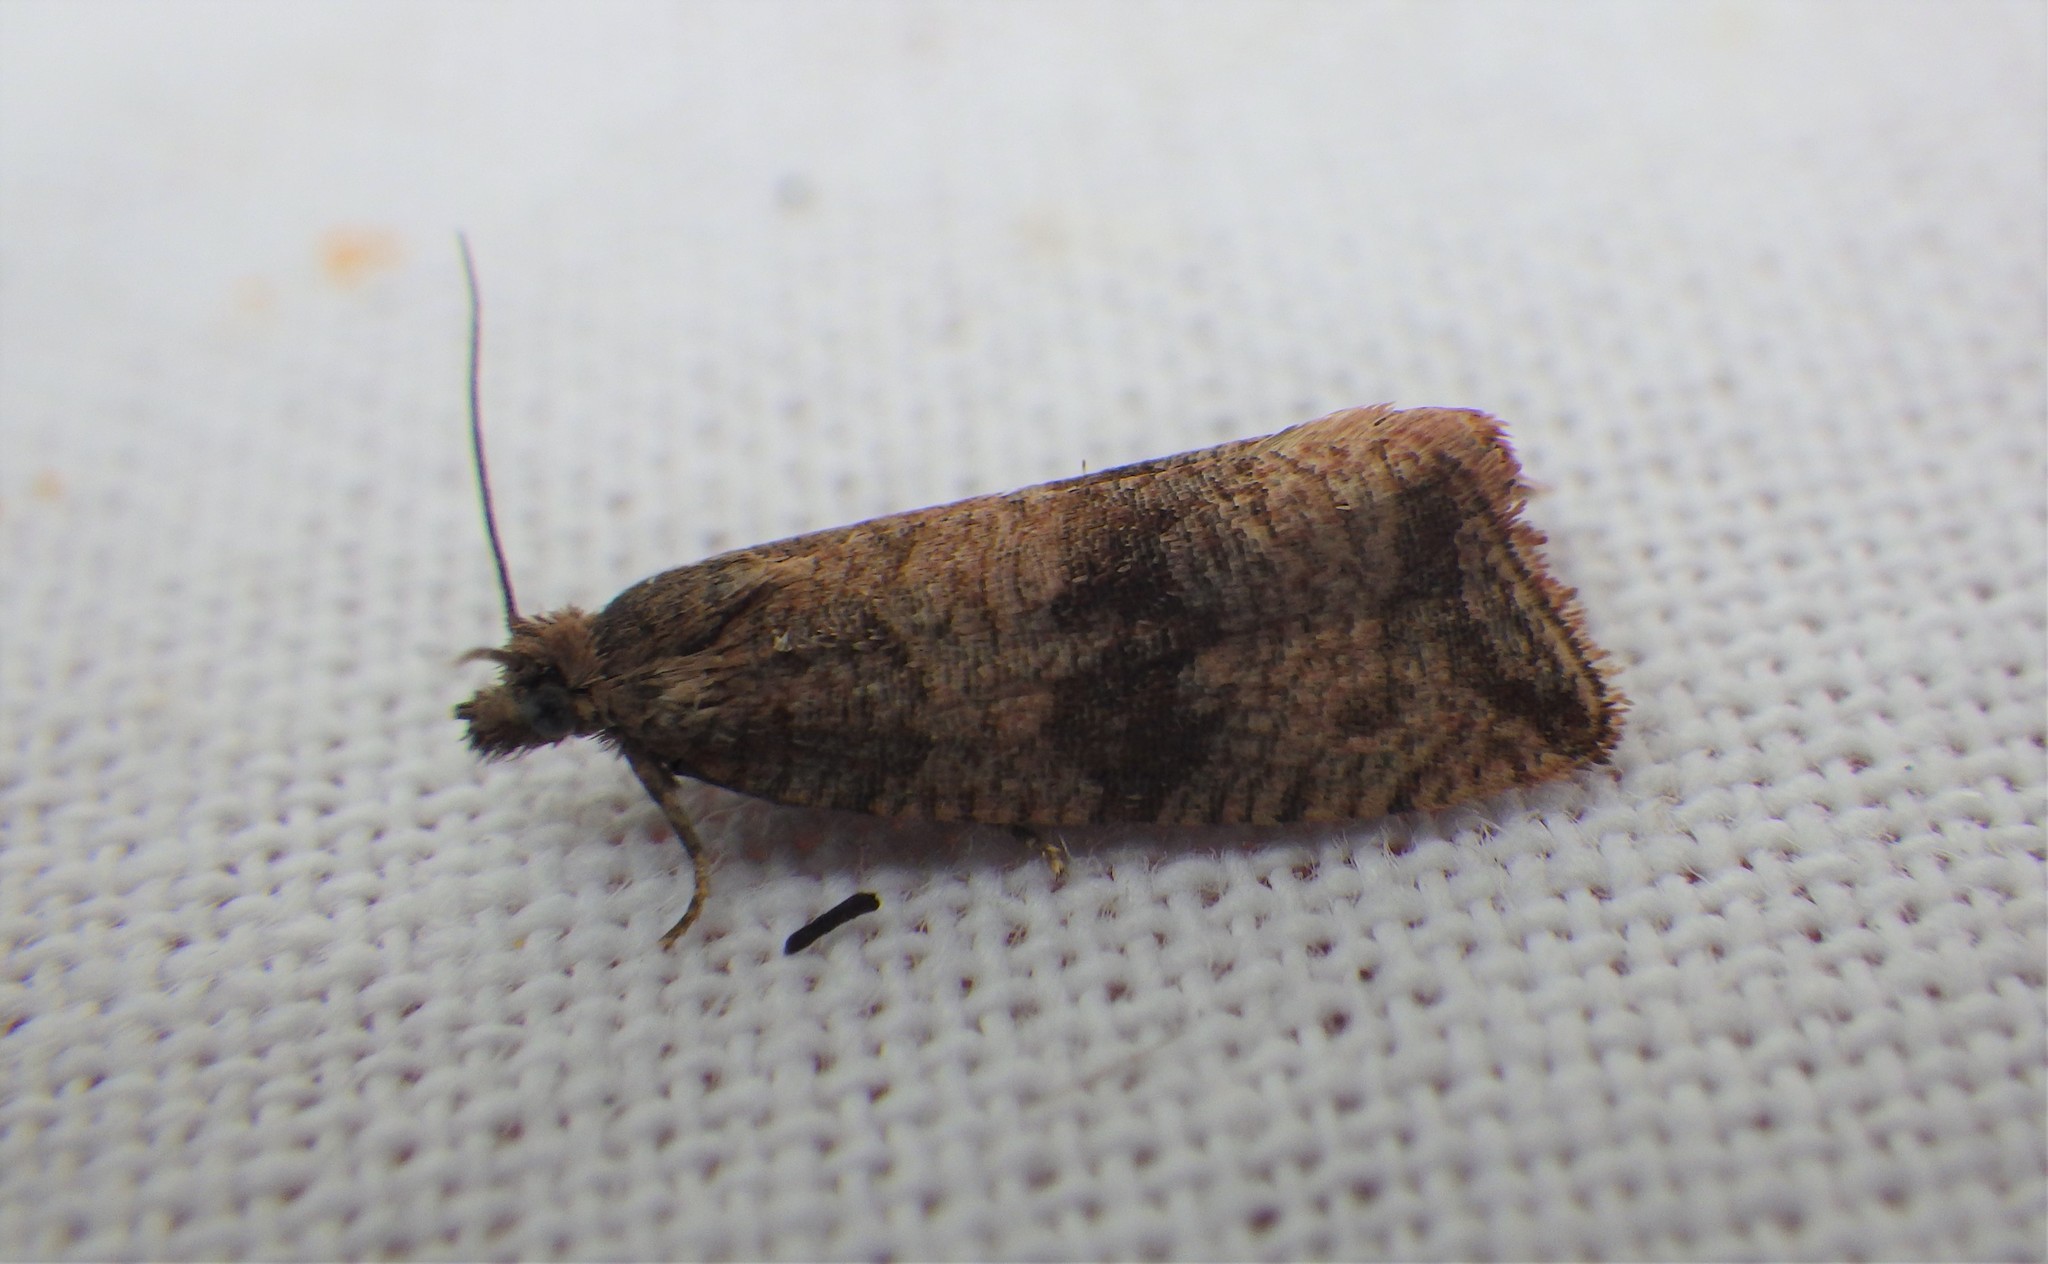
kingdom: Animalia
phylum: Arthropoda
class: Insecta
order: Lepidoptera
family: Tortricidae
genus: Celypha
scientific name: Celypha striana
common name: Barred marble
